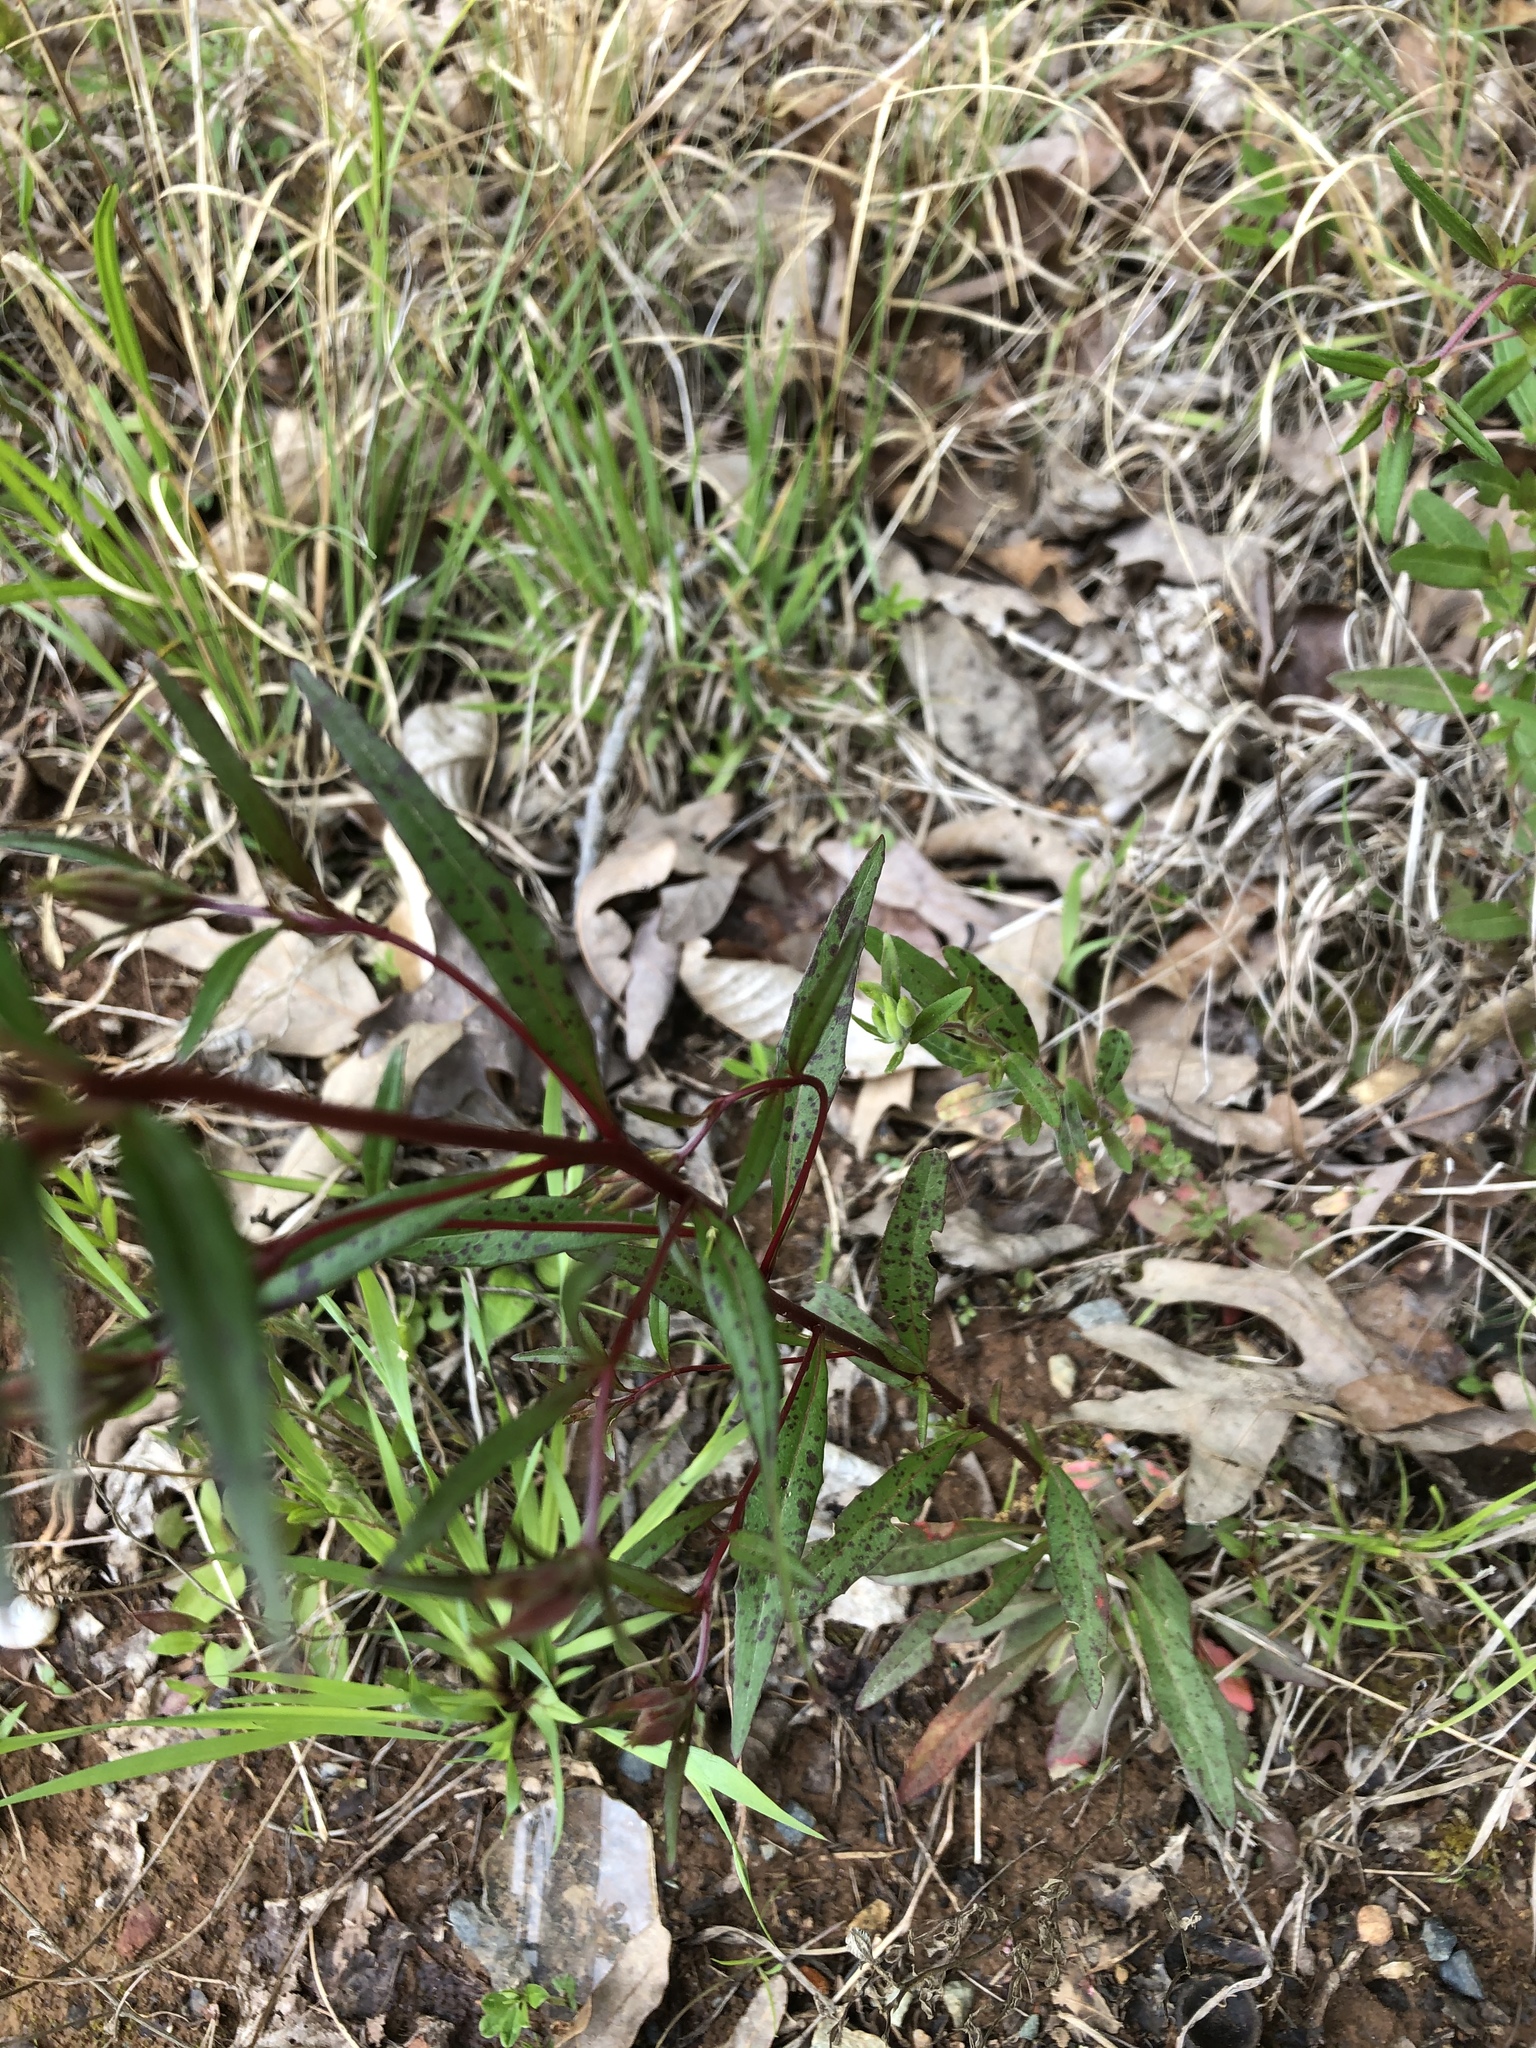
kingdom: Plantae
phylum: Tracheophyta
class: Magnoliopsida
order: Myrtales
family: Onagraceae
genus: Oenothera
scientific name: Oenothera fruticosa
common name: Southern sundrops
